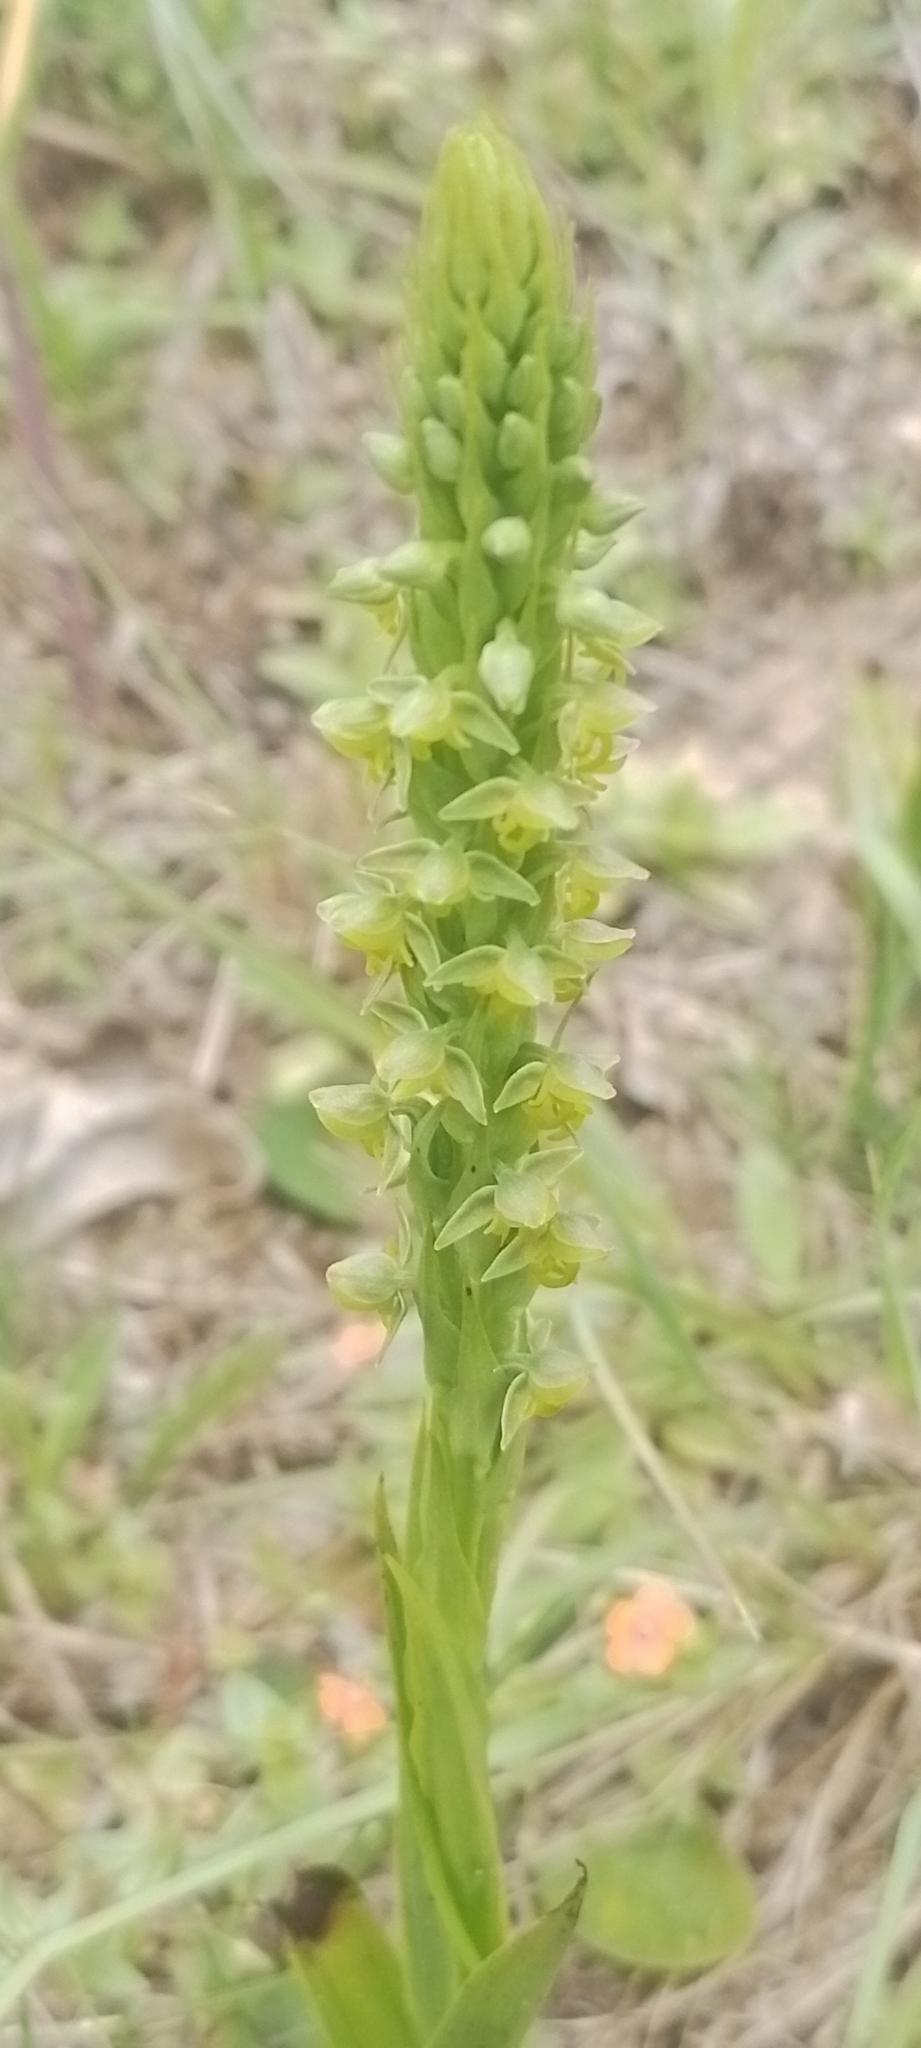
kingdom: Plantae
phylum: Tracheophyta
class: Liliopsida
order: Asparagales
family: Orchidaceae
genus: Habenaria
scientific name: Habenaria parviflora
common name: Small flowered habenaria
